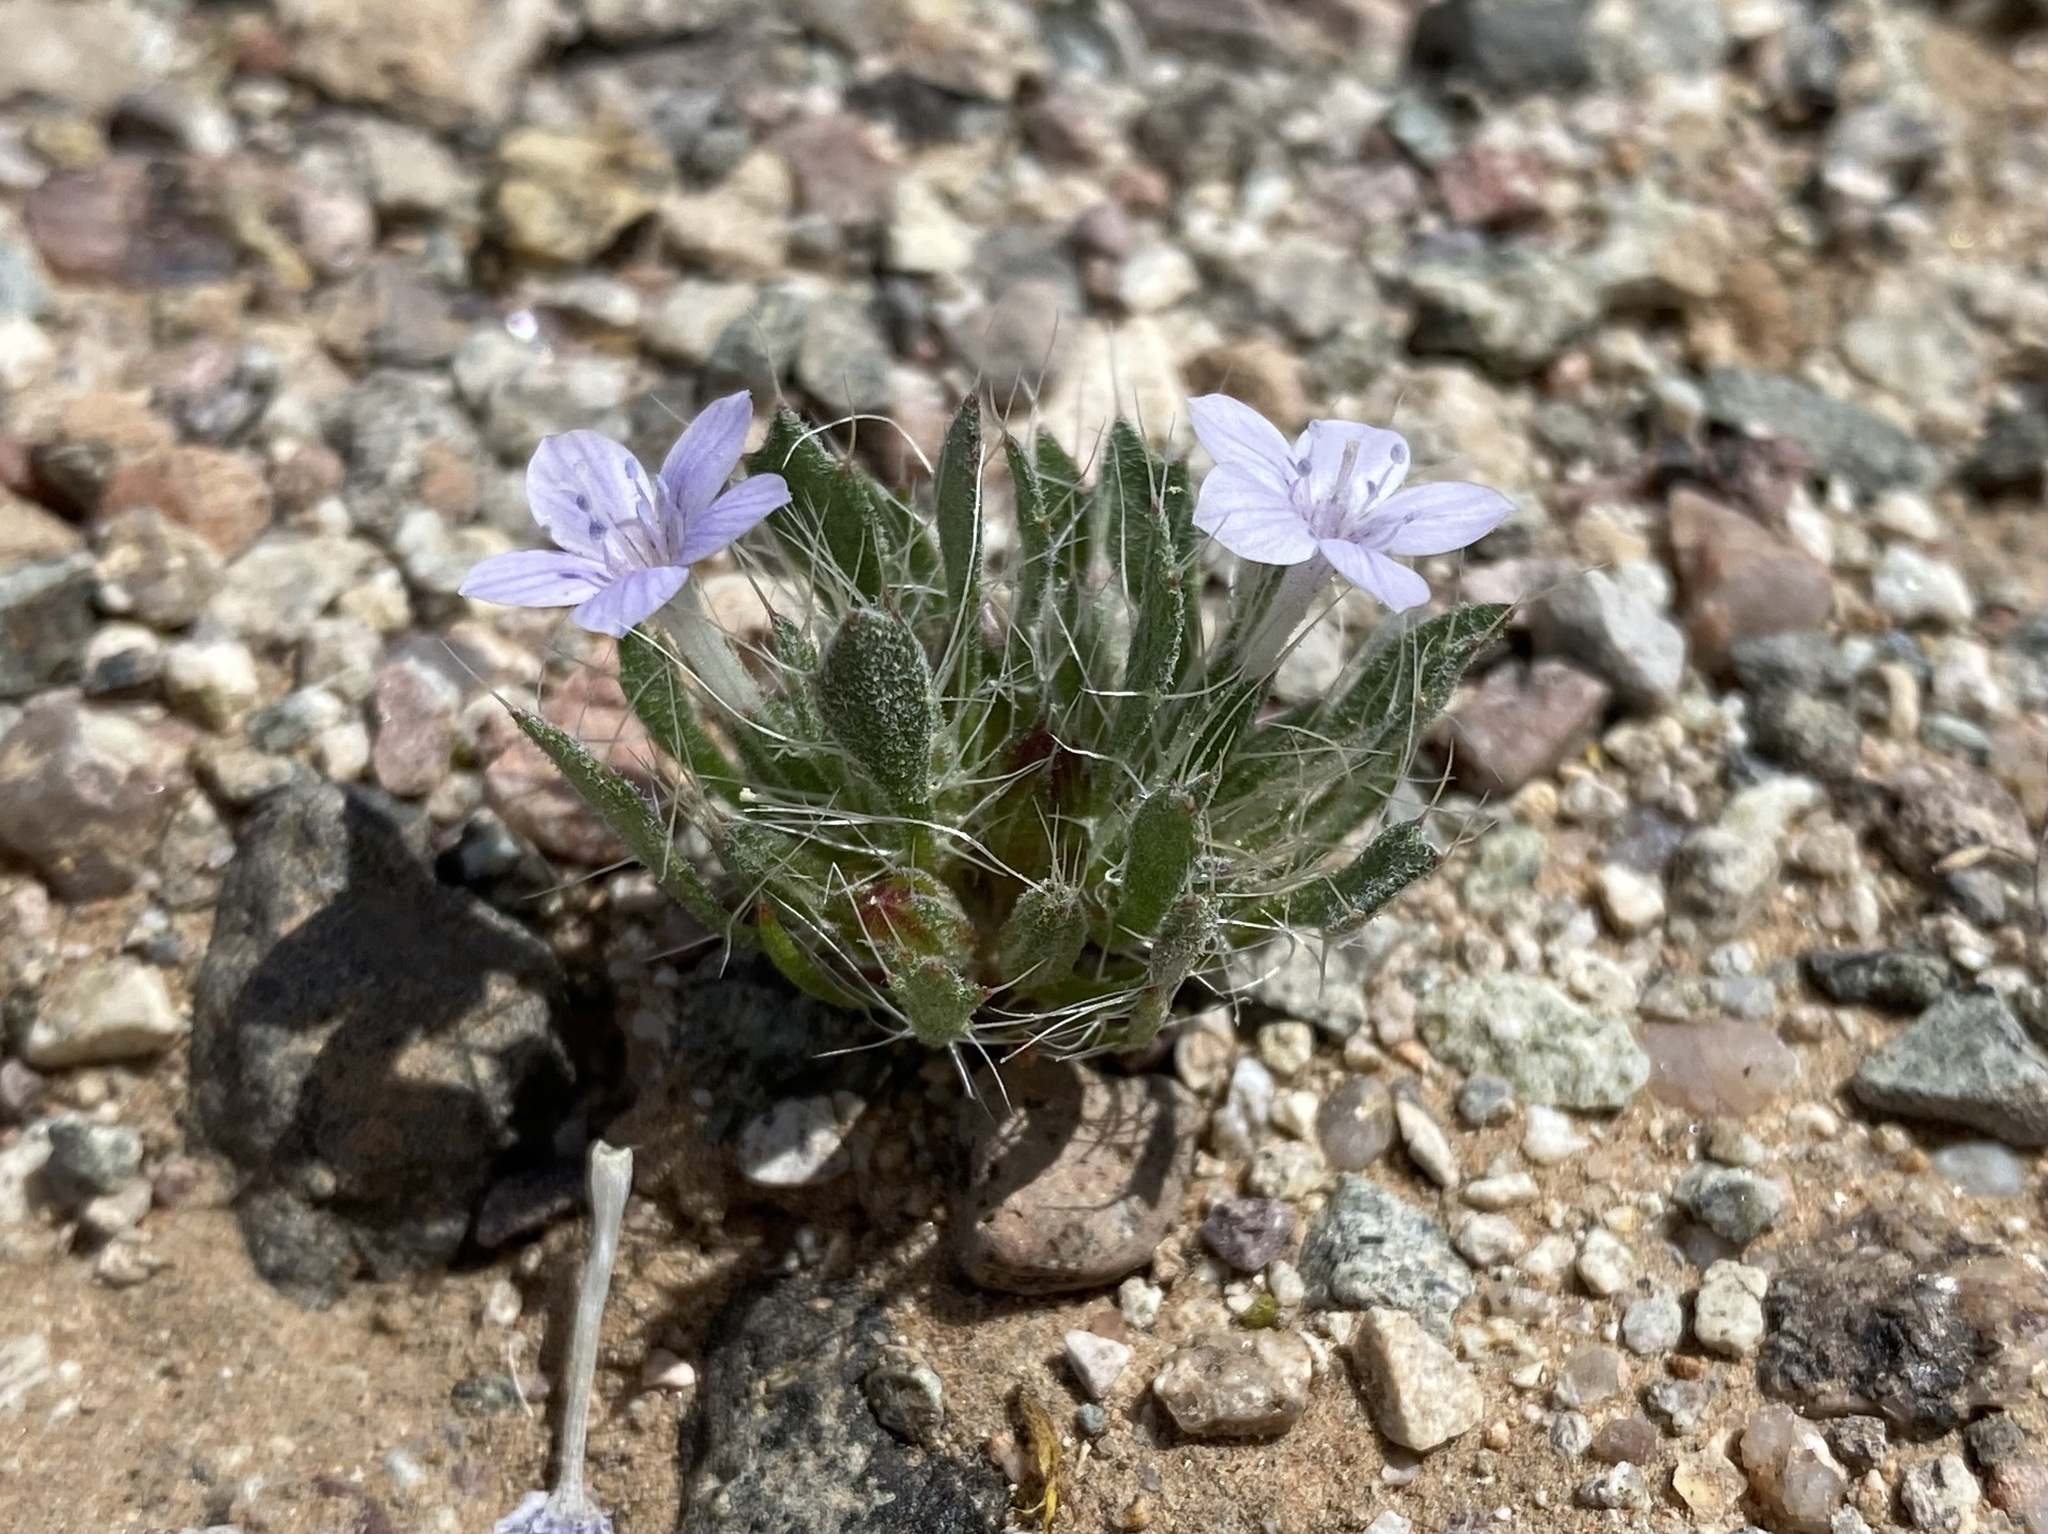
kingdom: Plantae
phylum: Tracheophyta
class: Magnoliopsida
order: Ericales
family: Polemoniaceae
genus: Langloisia
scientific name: Langloisia setosissima
